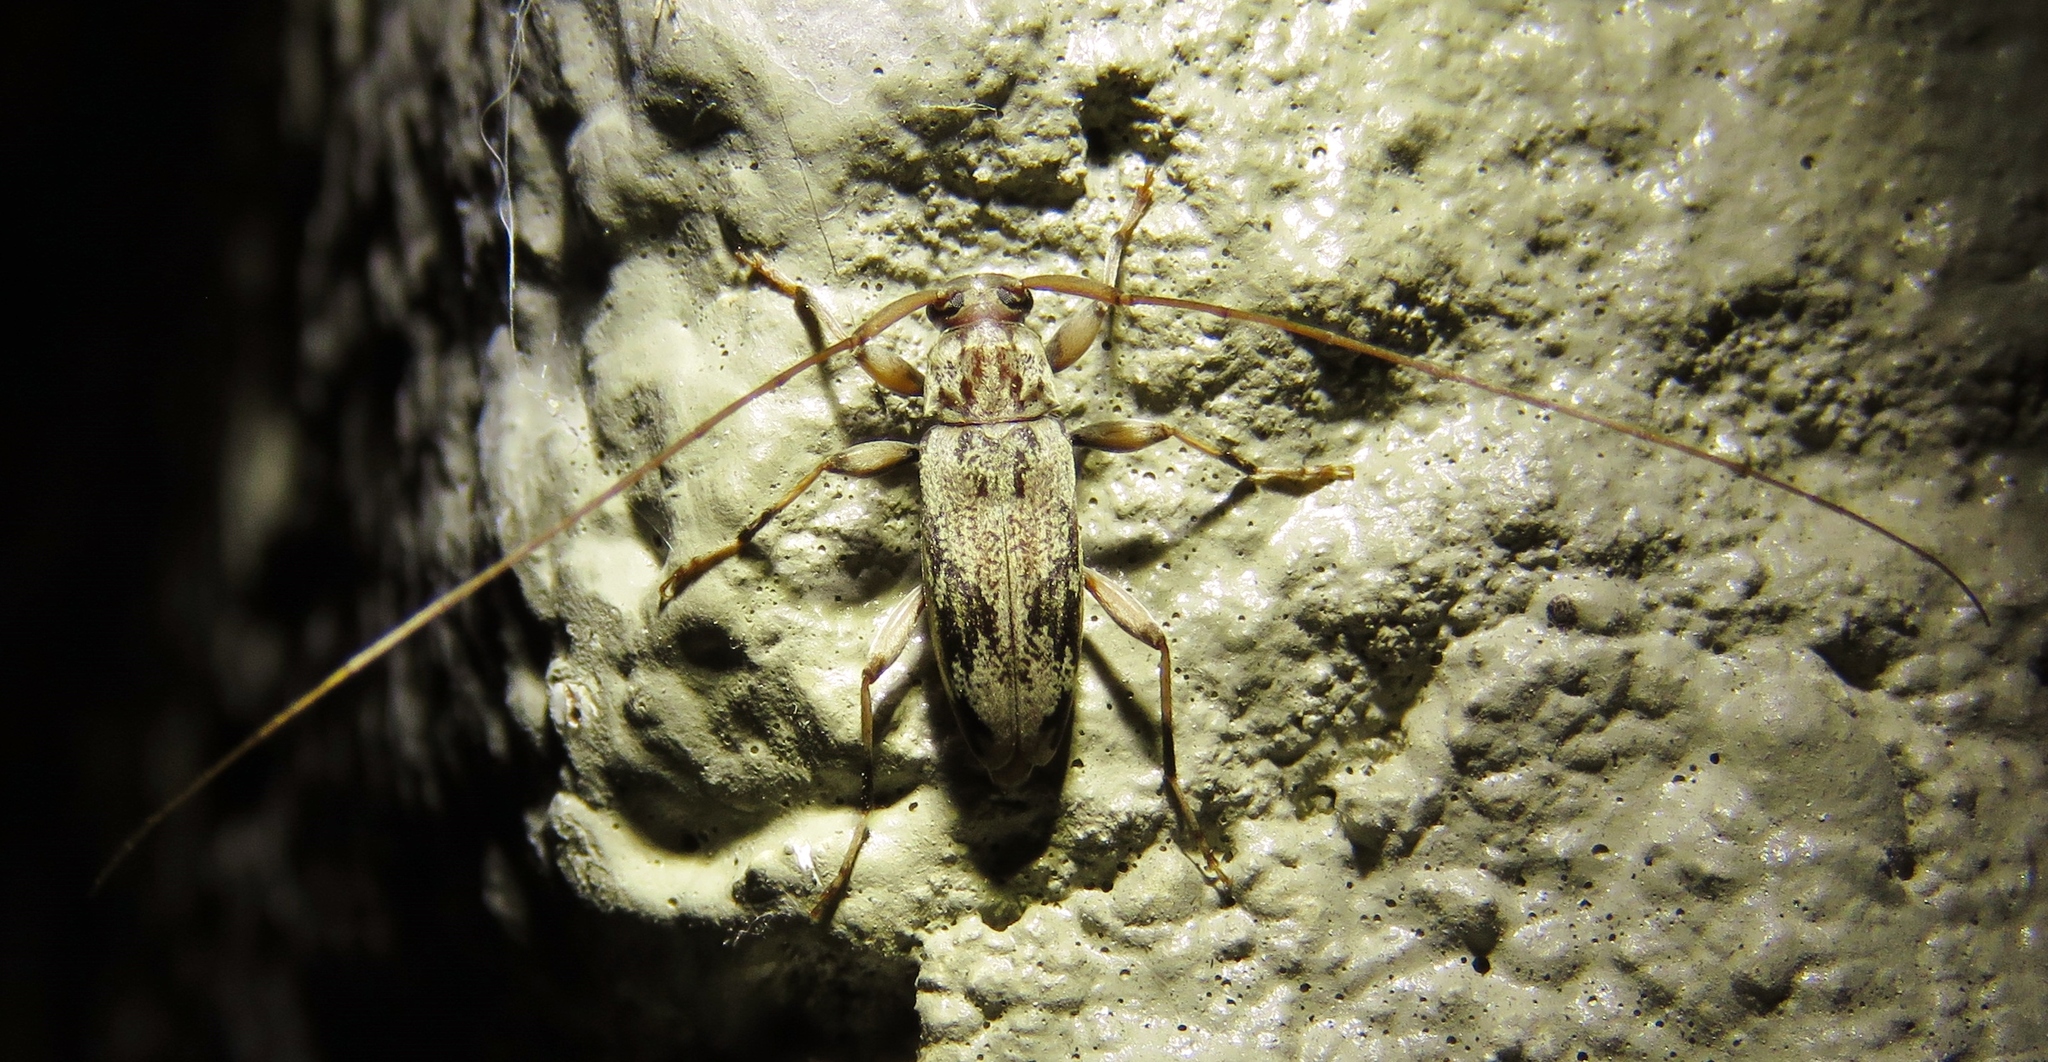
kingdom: Animalia
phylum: Arthropoda
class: Insecta
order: Coleoptera
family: Cerambycidae
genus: Lepturges
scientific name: Lepturges angulatus
